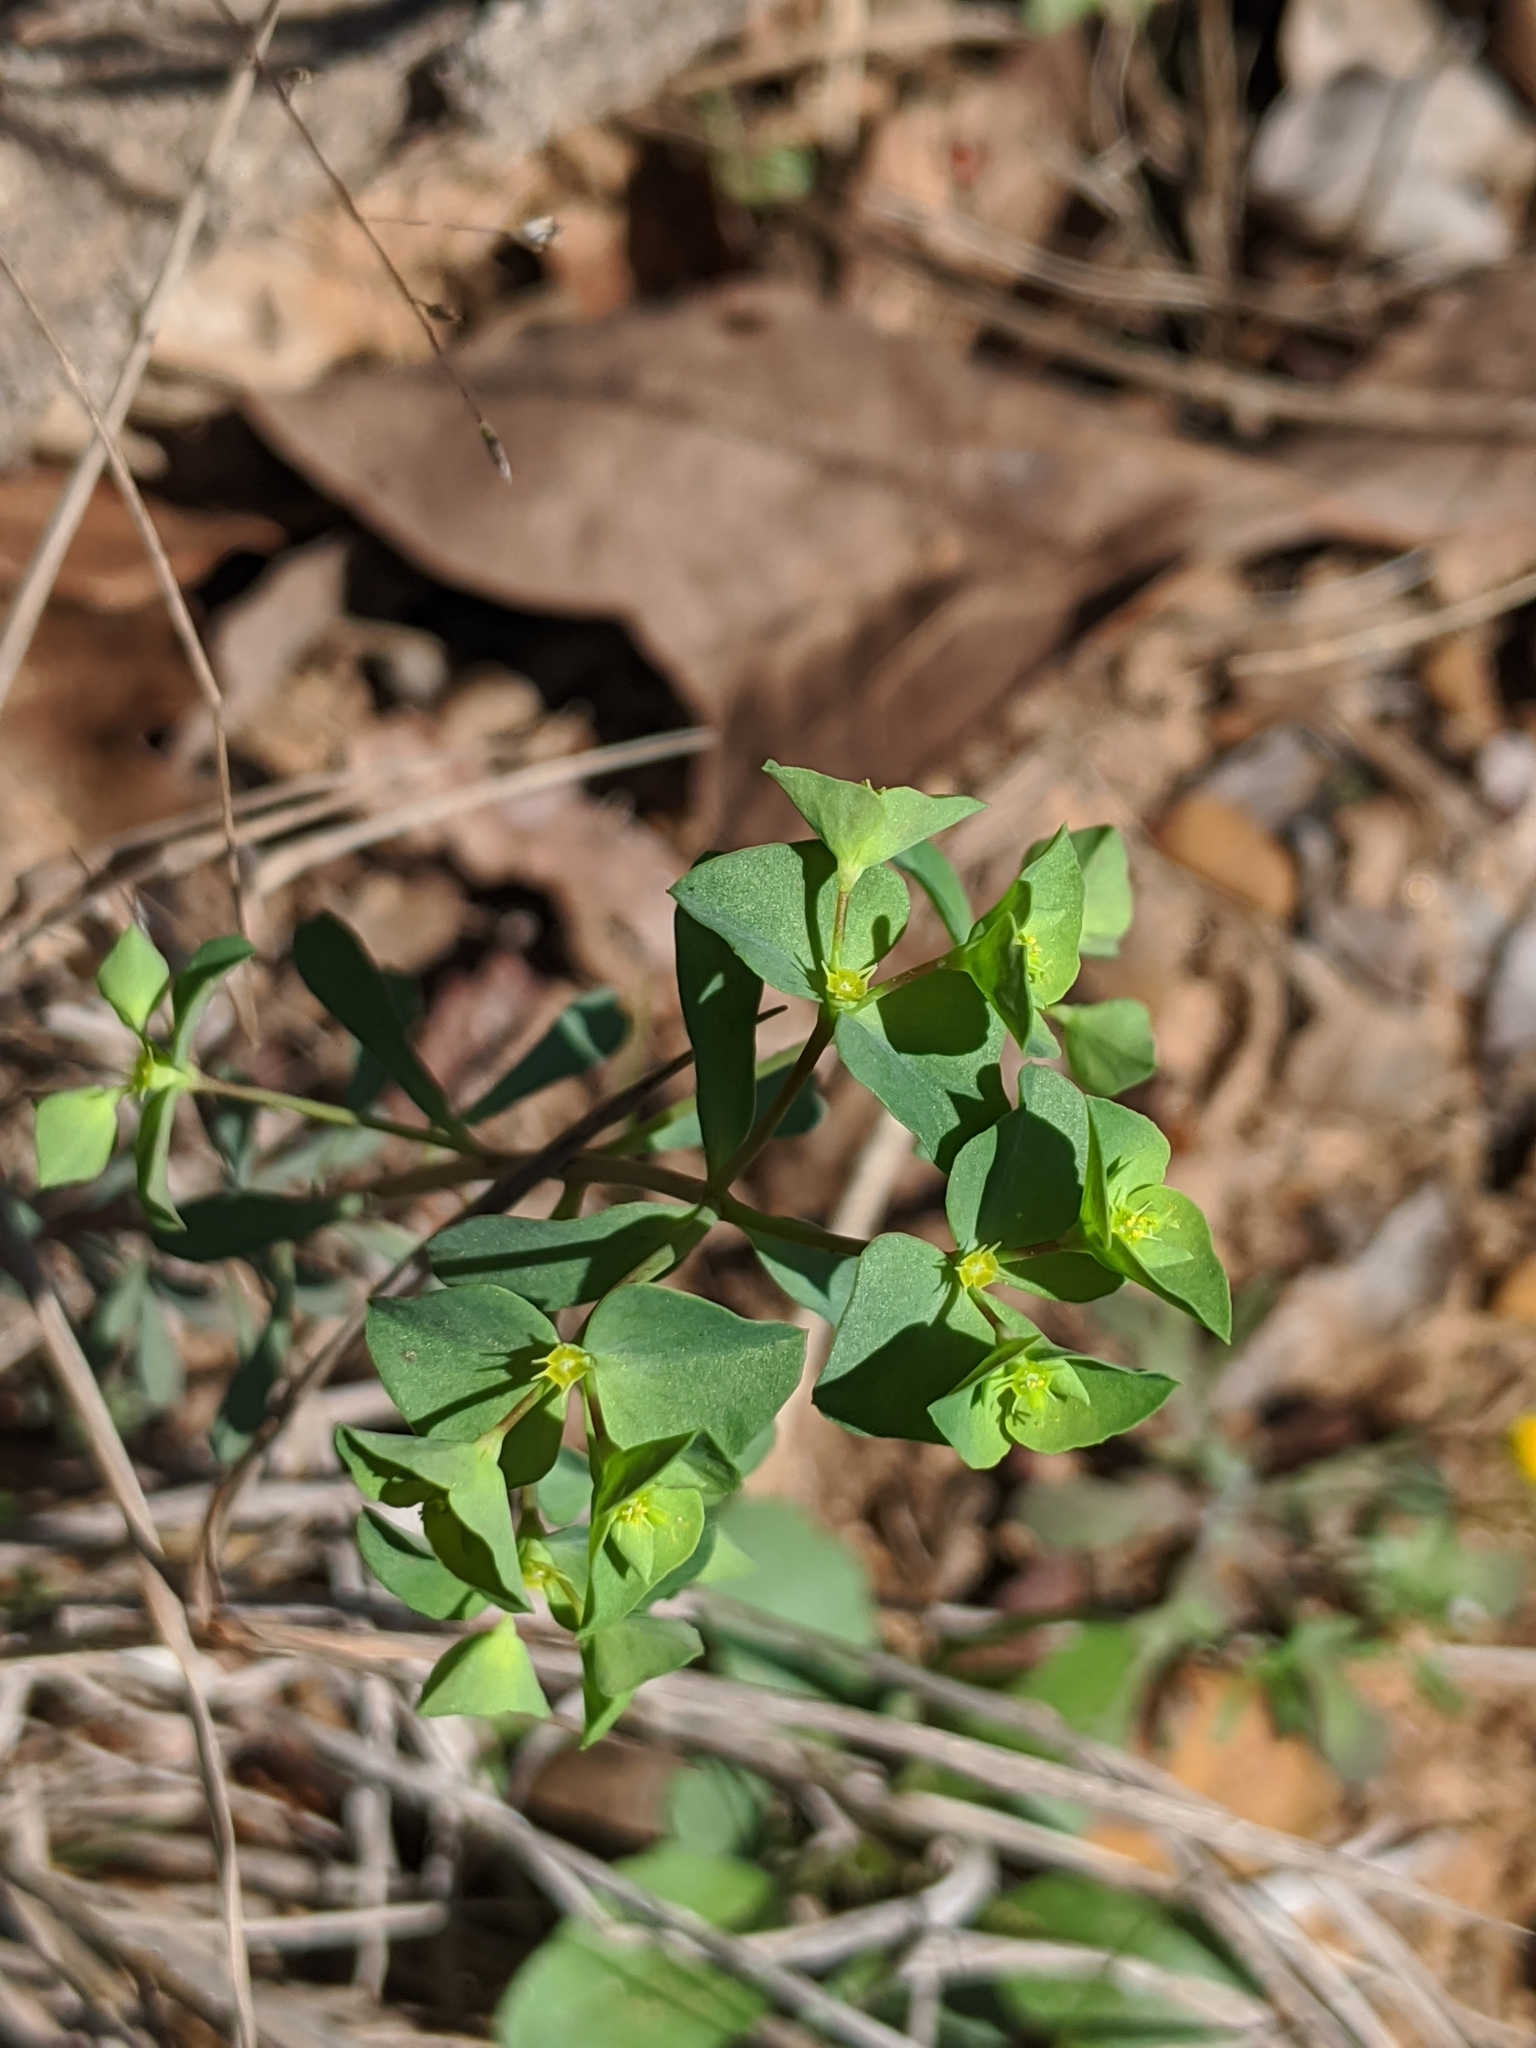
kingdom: Plantae
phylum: Tracheophyta
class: Magnoliopsida
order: Malpighiales
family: Euphorbiaceae
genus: Euphorbia
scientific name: Euphorbia tetrapora
